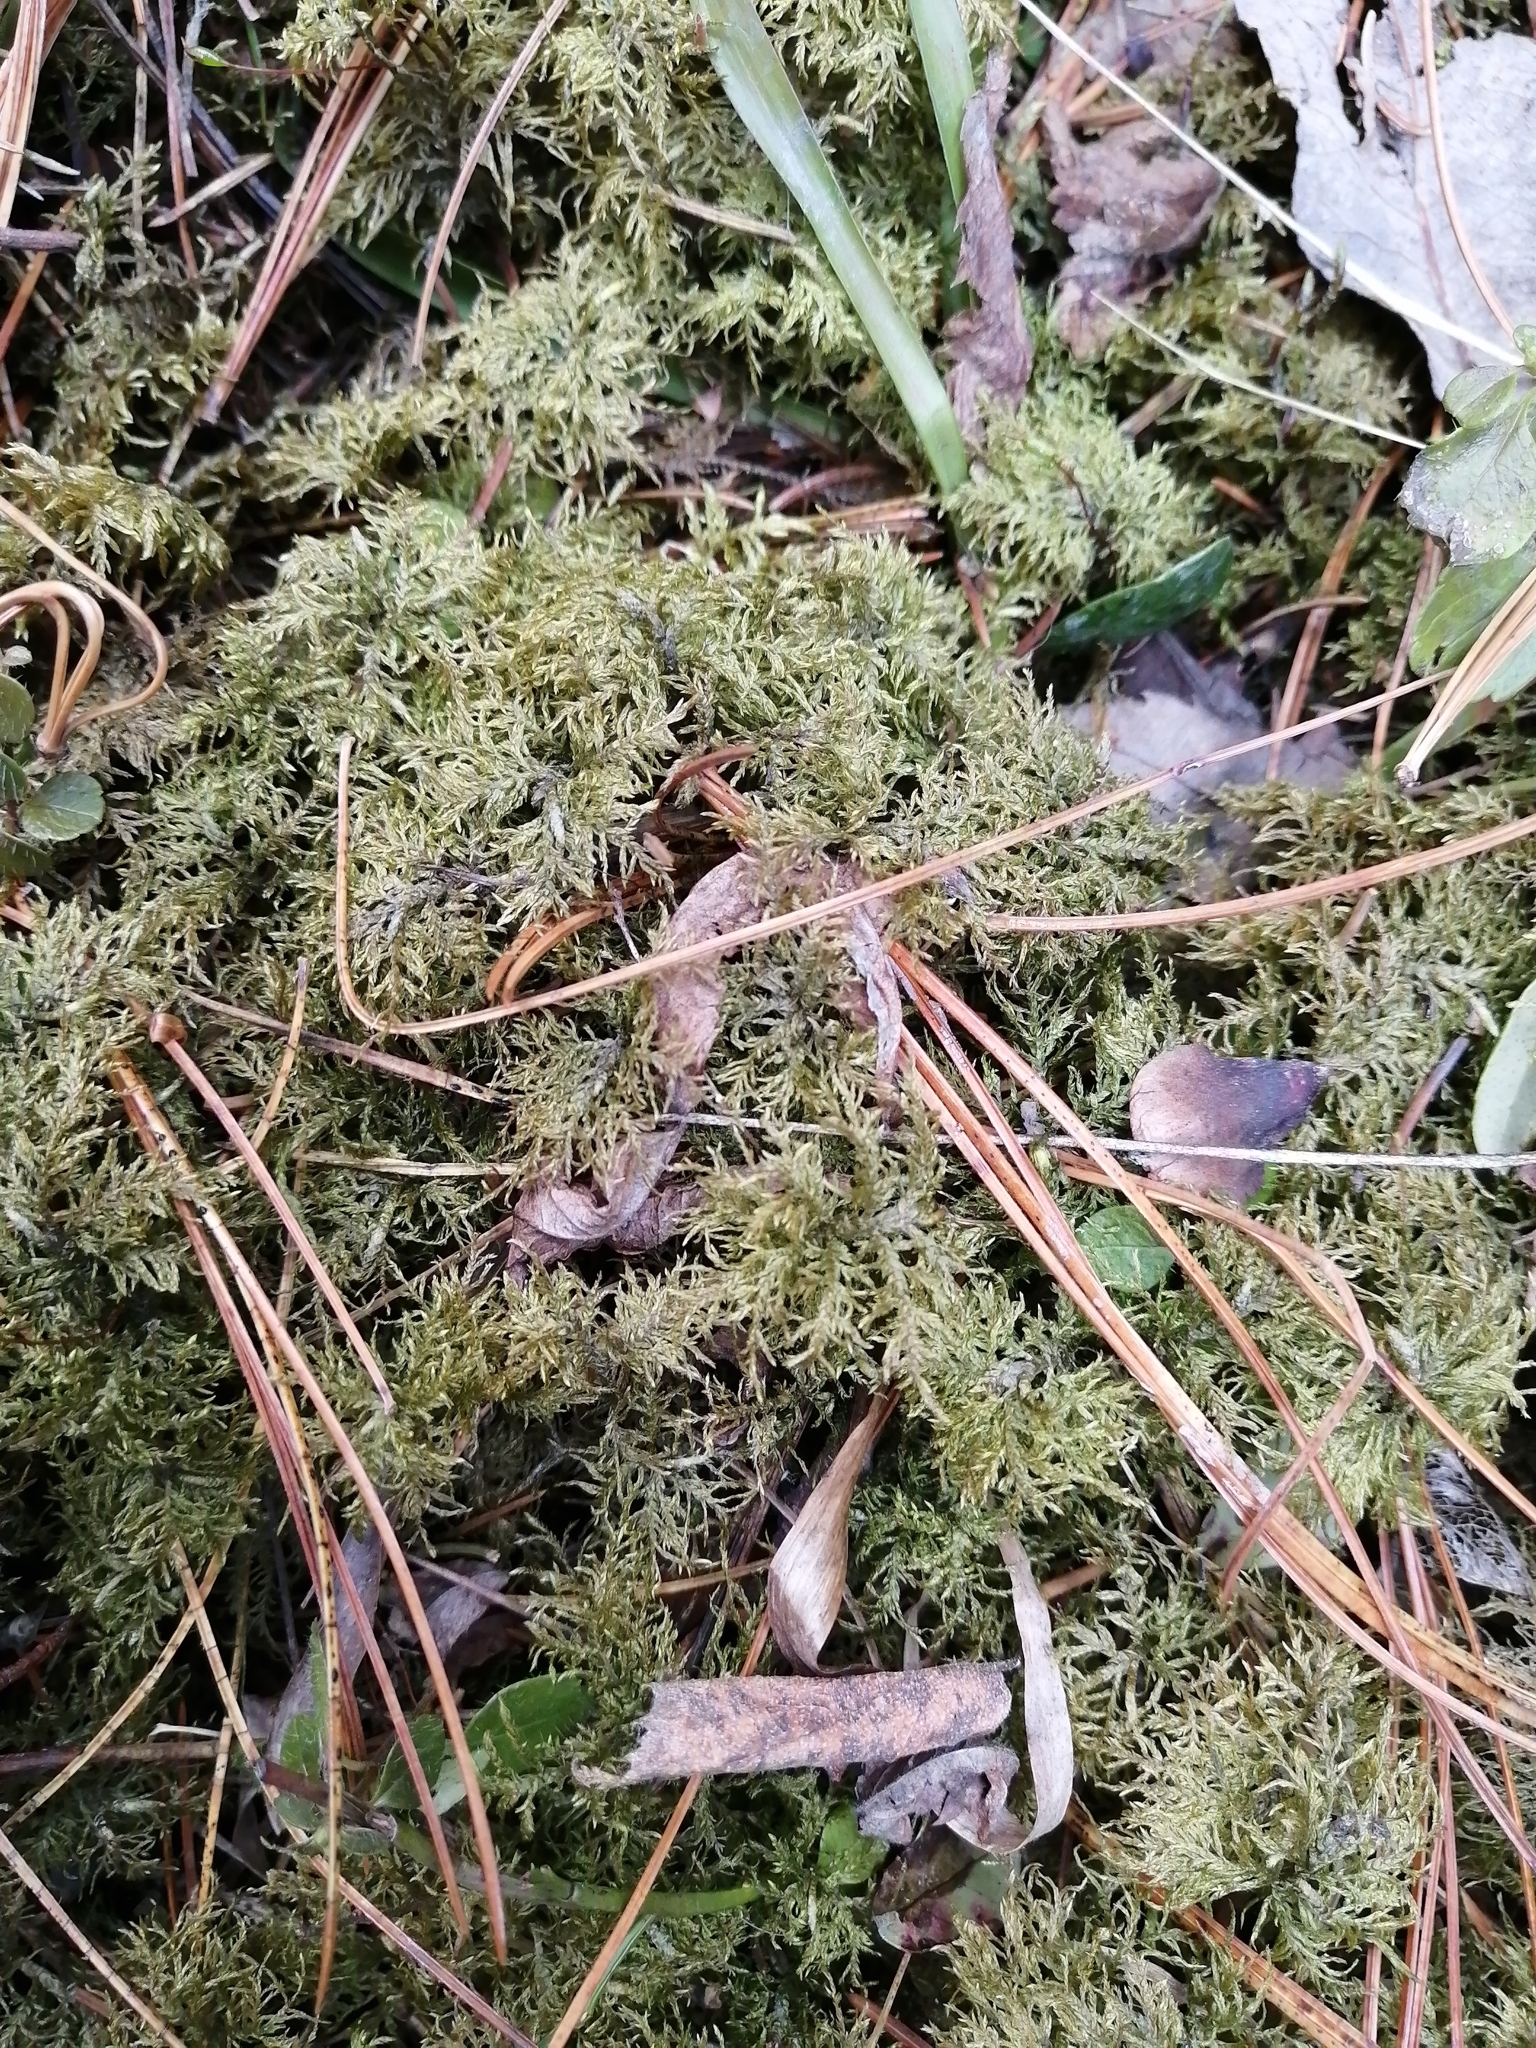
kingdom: Plantae
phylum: Bryophyta
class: Bryopsida
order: Hypnales
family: Hylocomiaceae
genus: Hylocomium
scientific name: Hylocomium splendens
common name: Stairstep moss
